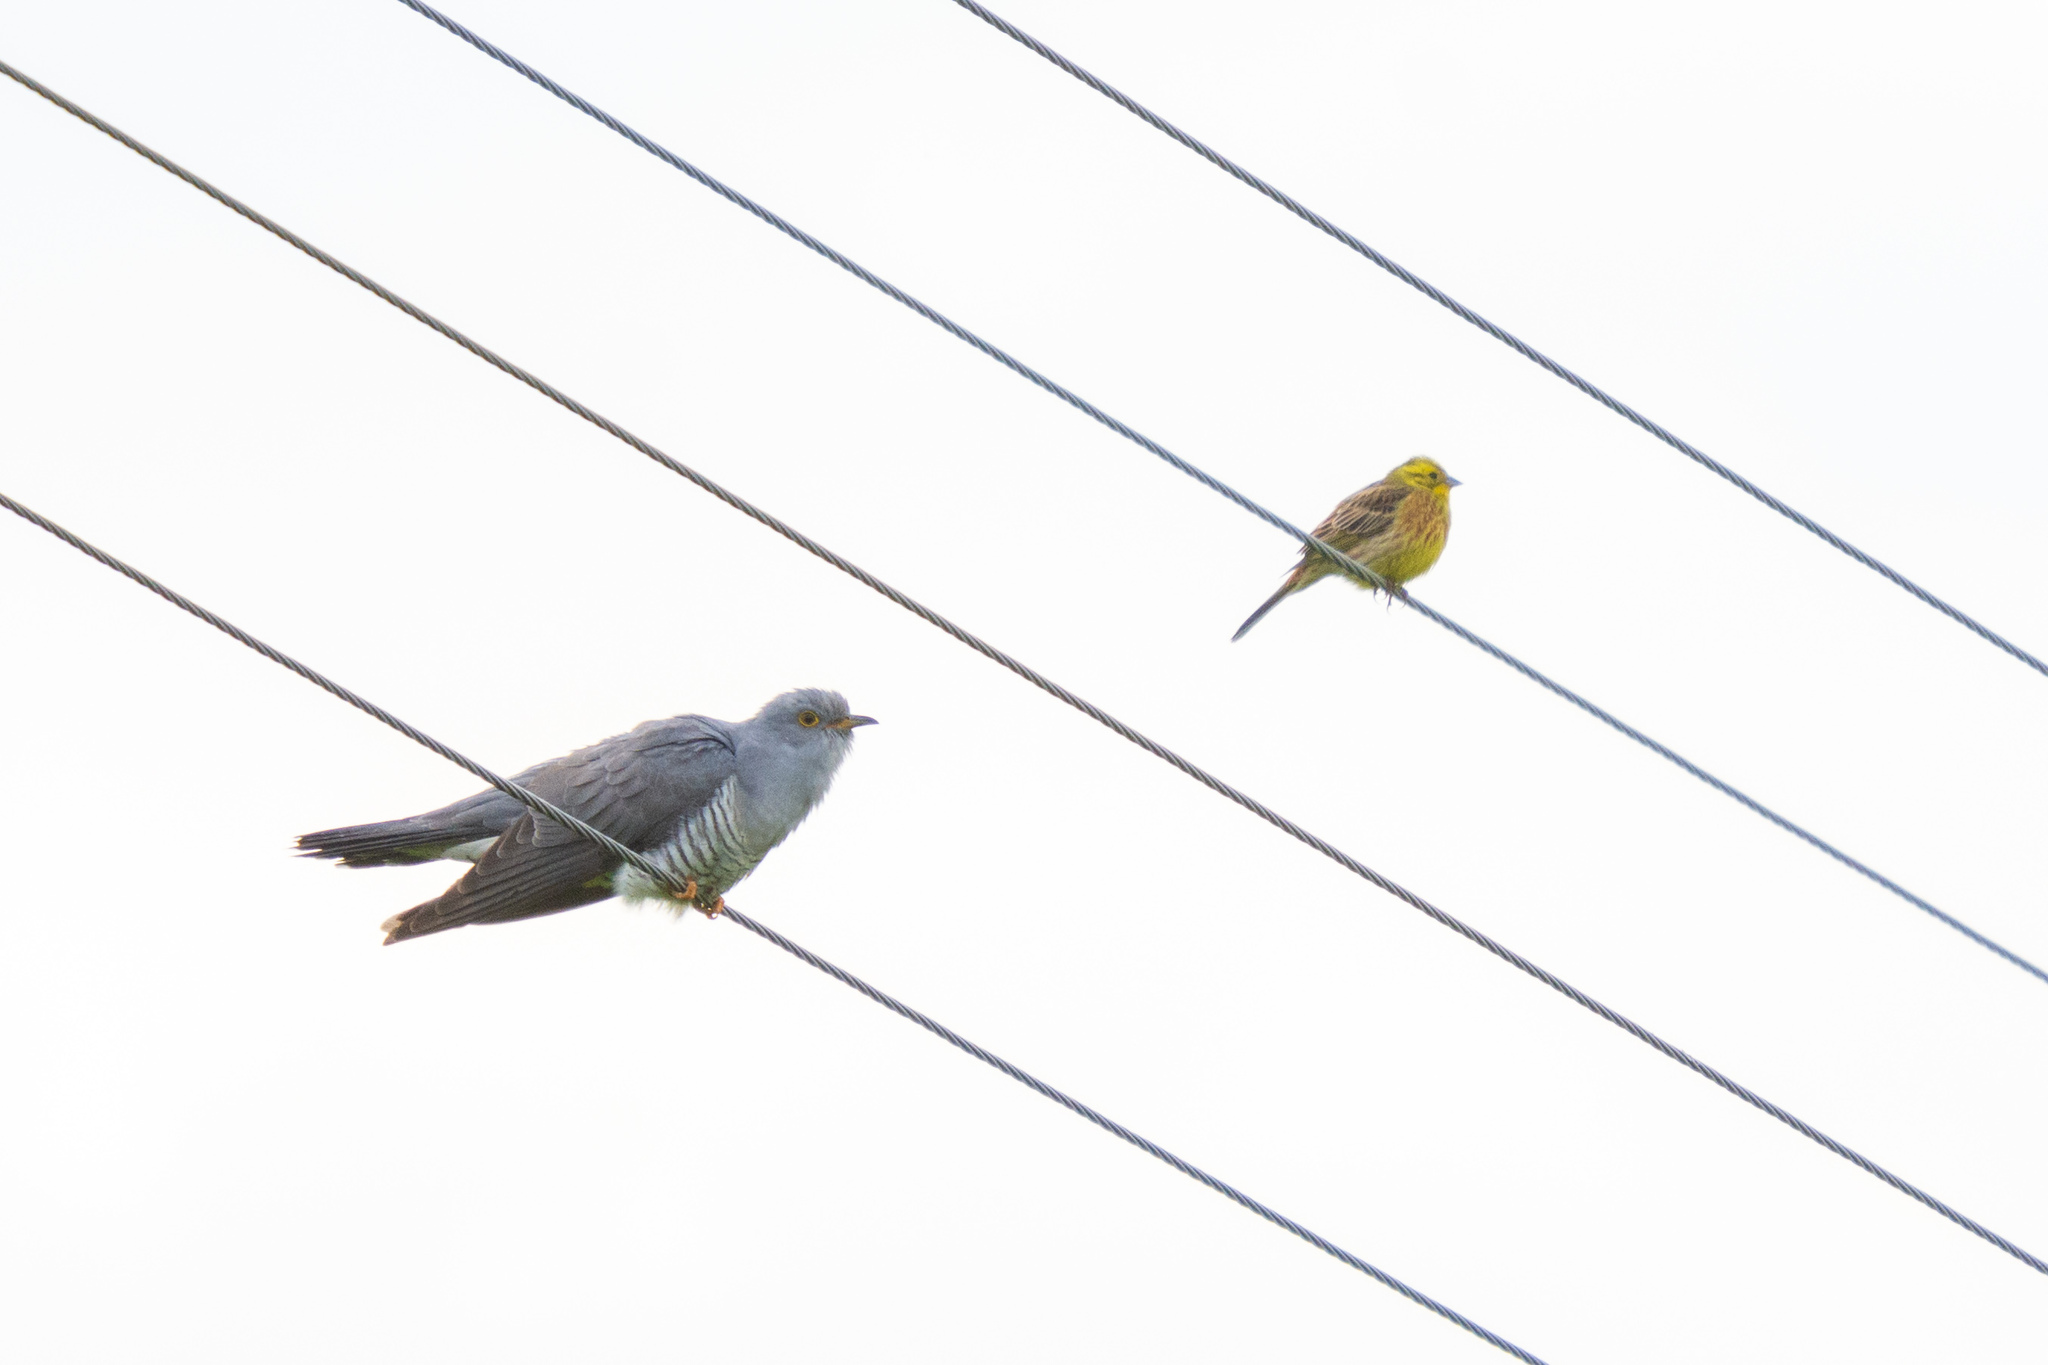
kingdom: Animalia
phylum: Chordata
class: Aves
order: Passeriformes
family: Emberizidae
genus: Emberiza
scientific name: Emberiza citrinella
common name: Yellowhammer
